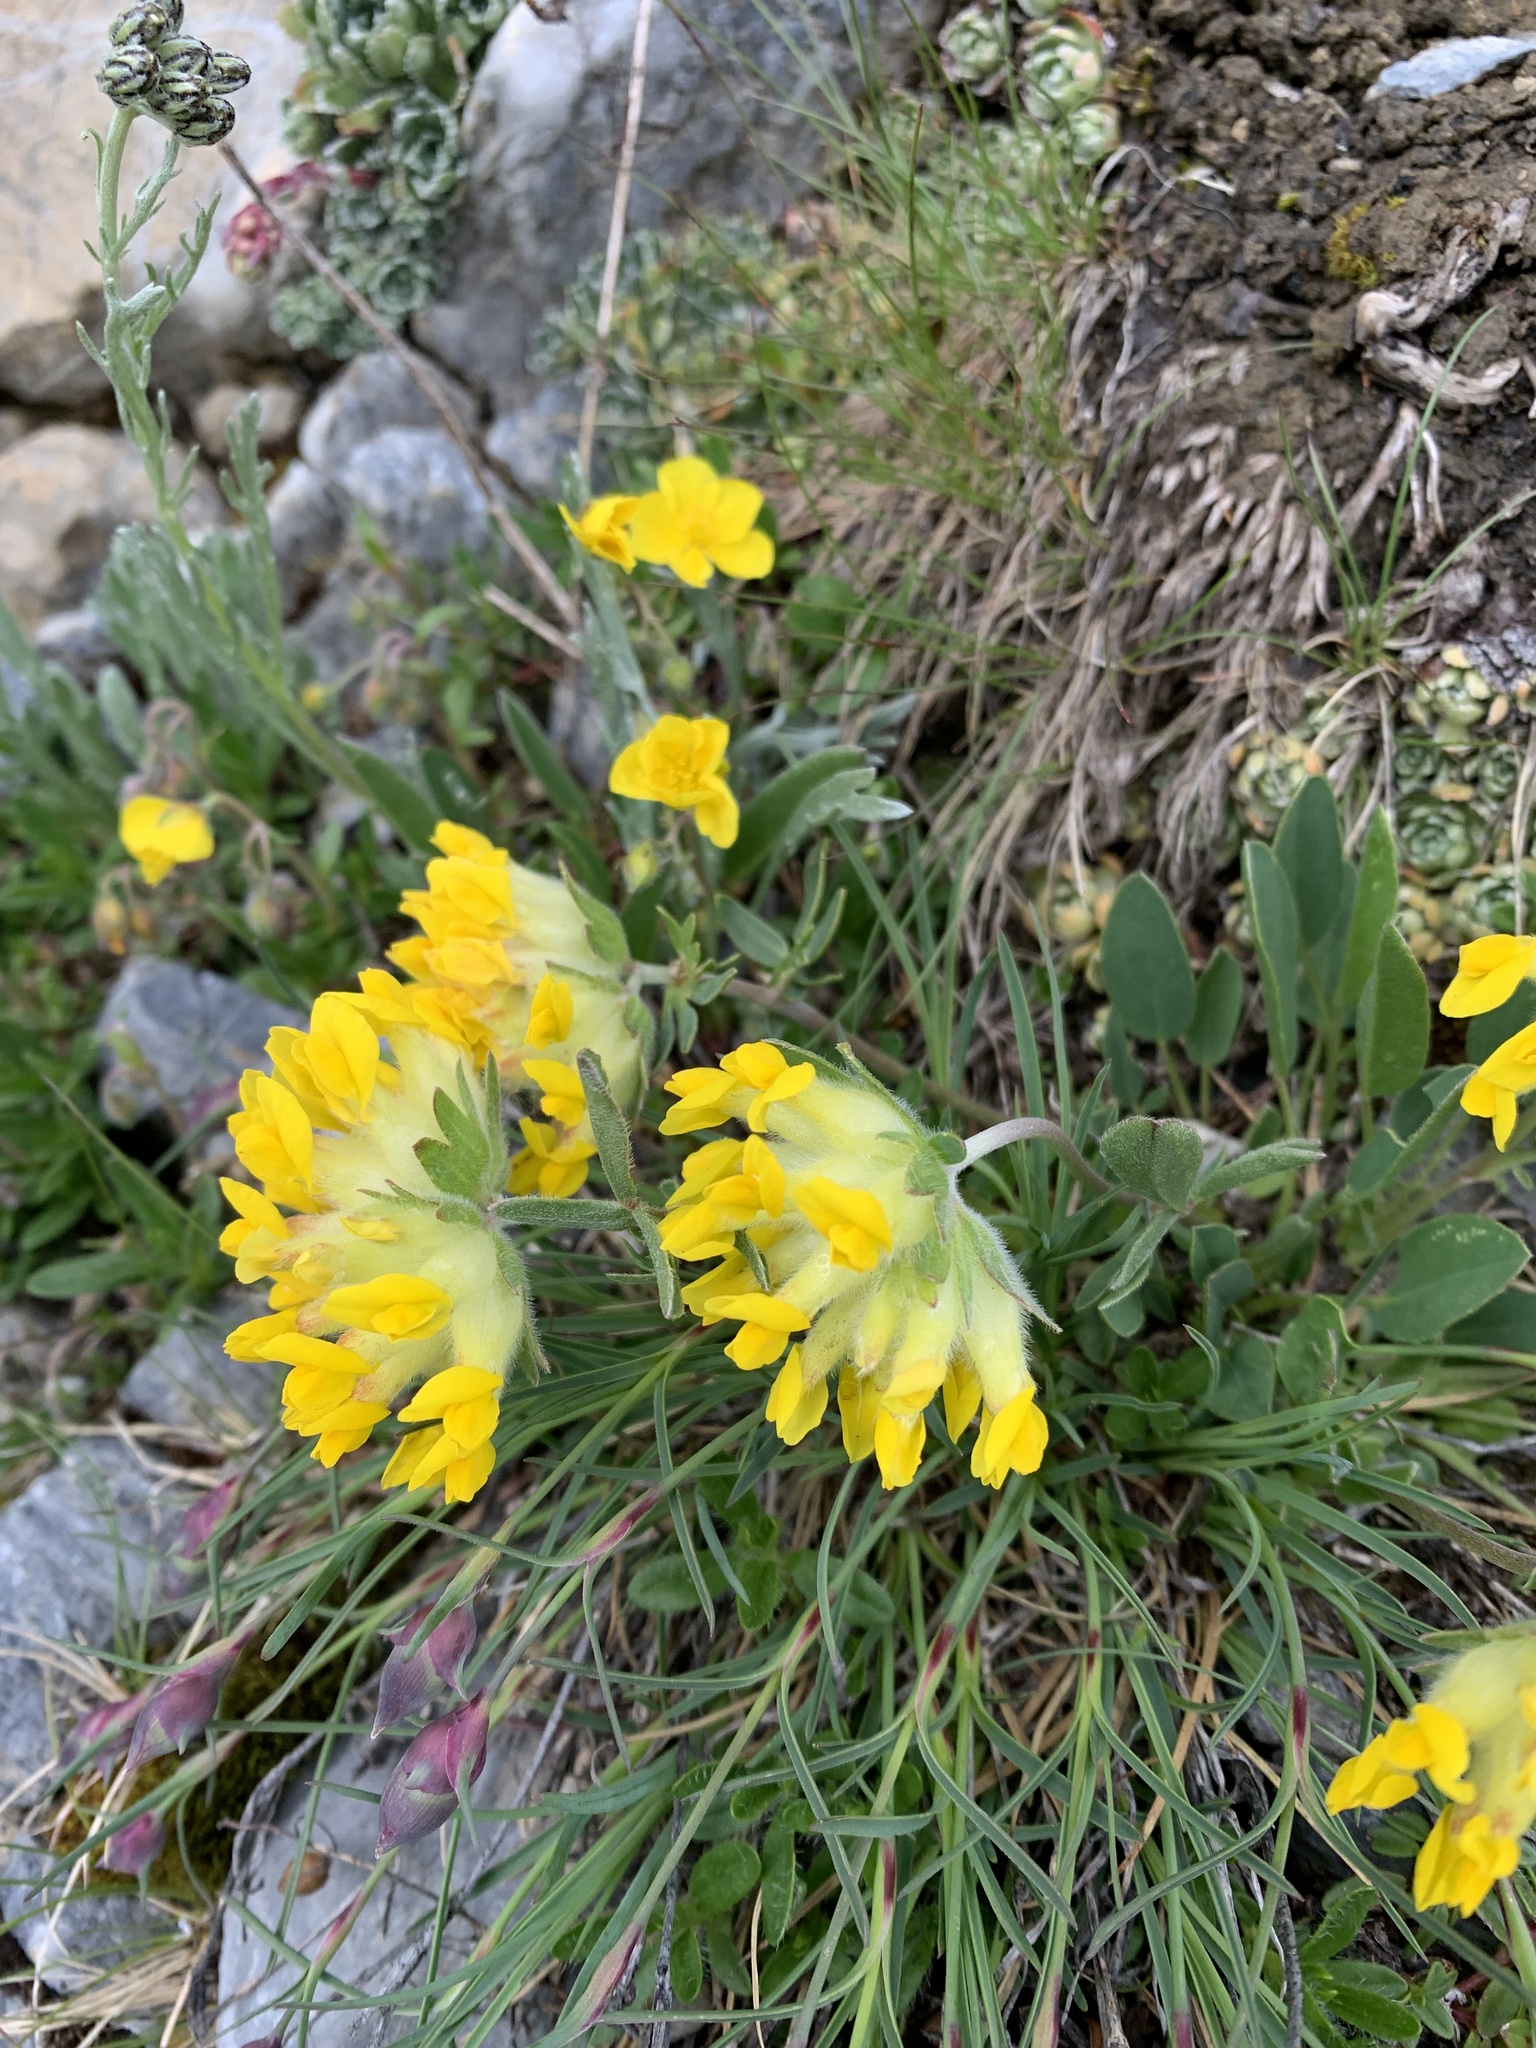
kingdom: Plantae
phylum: Tracheophyta
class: Magnoliopsida
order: Fabales
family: Fabaceae
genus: Anthyllis
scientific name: Anthyllis vulneraria
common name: Kidney vetch
